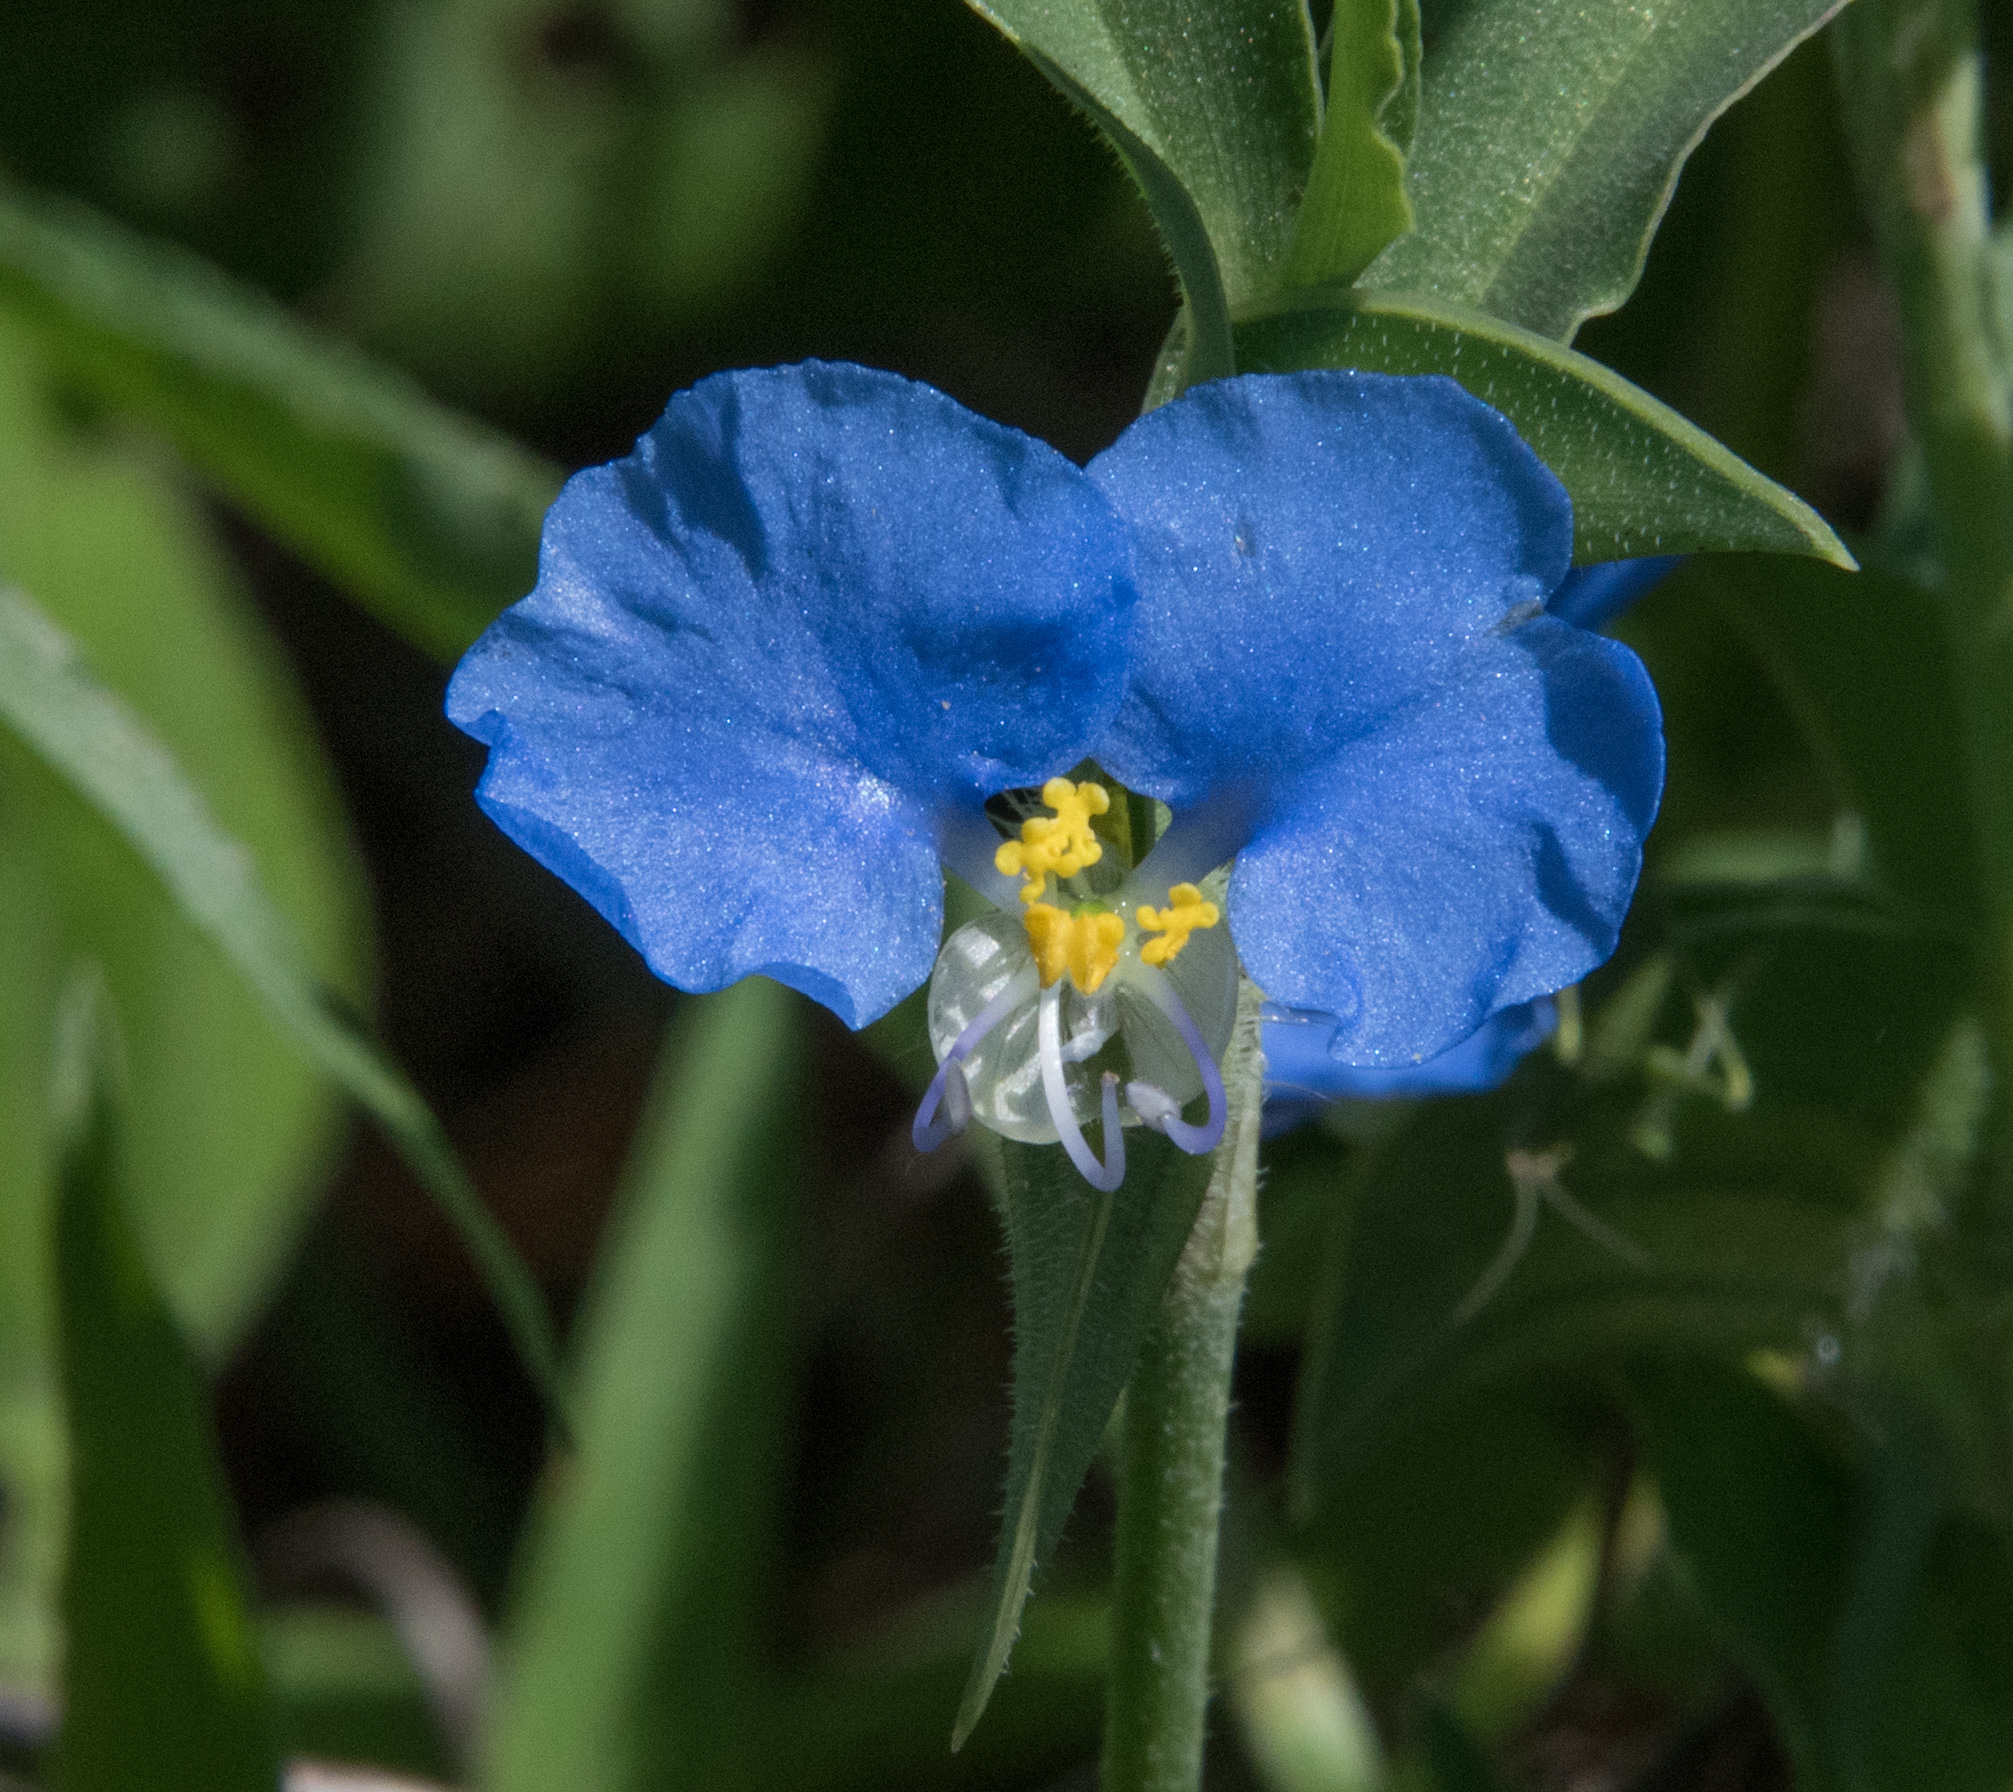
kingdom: Plantae
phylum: Tracheophyta
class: Liliopsida
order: Commelinales
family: Commelinaceae
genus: Commelina
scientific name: Commelina erecta
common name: Blousel blommetjie
